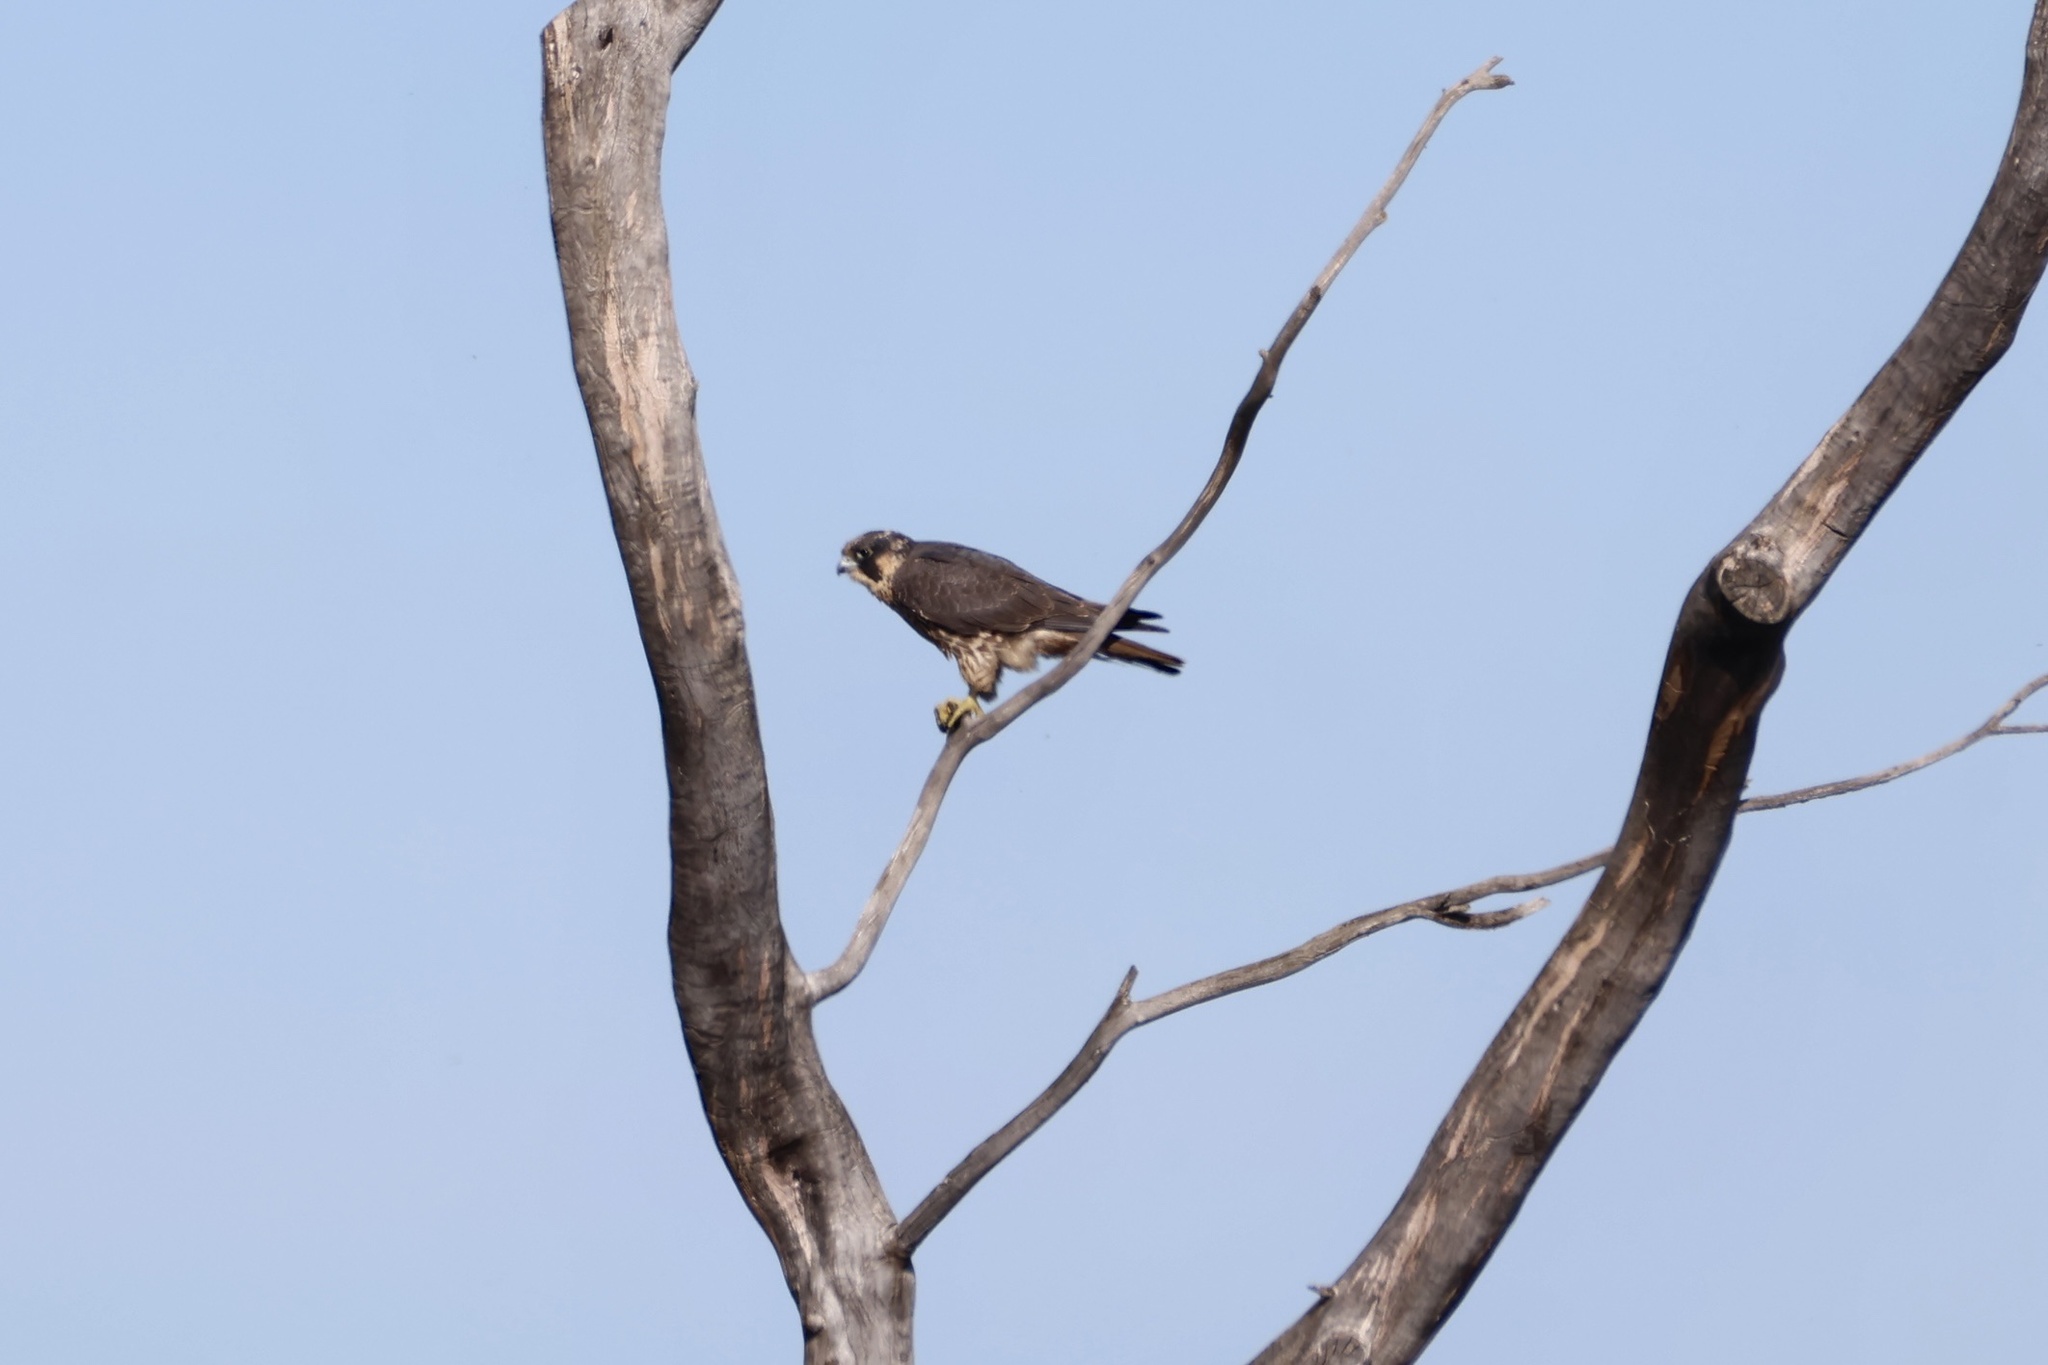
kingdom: Animalia
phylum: Chordata
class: Aves
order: Falconiformes
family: Falconidae
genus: Falco
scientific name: Falco peregrinus
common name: Peregrine falcon
